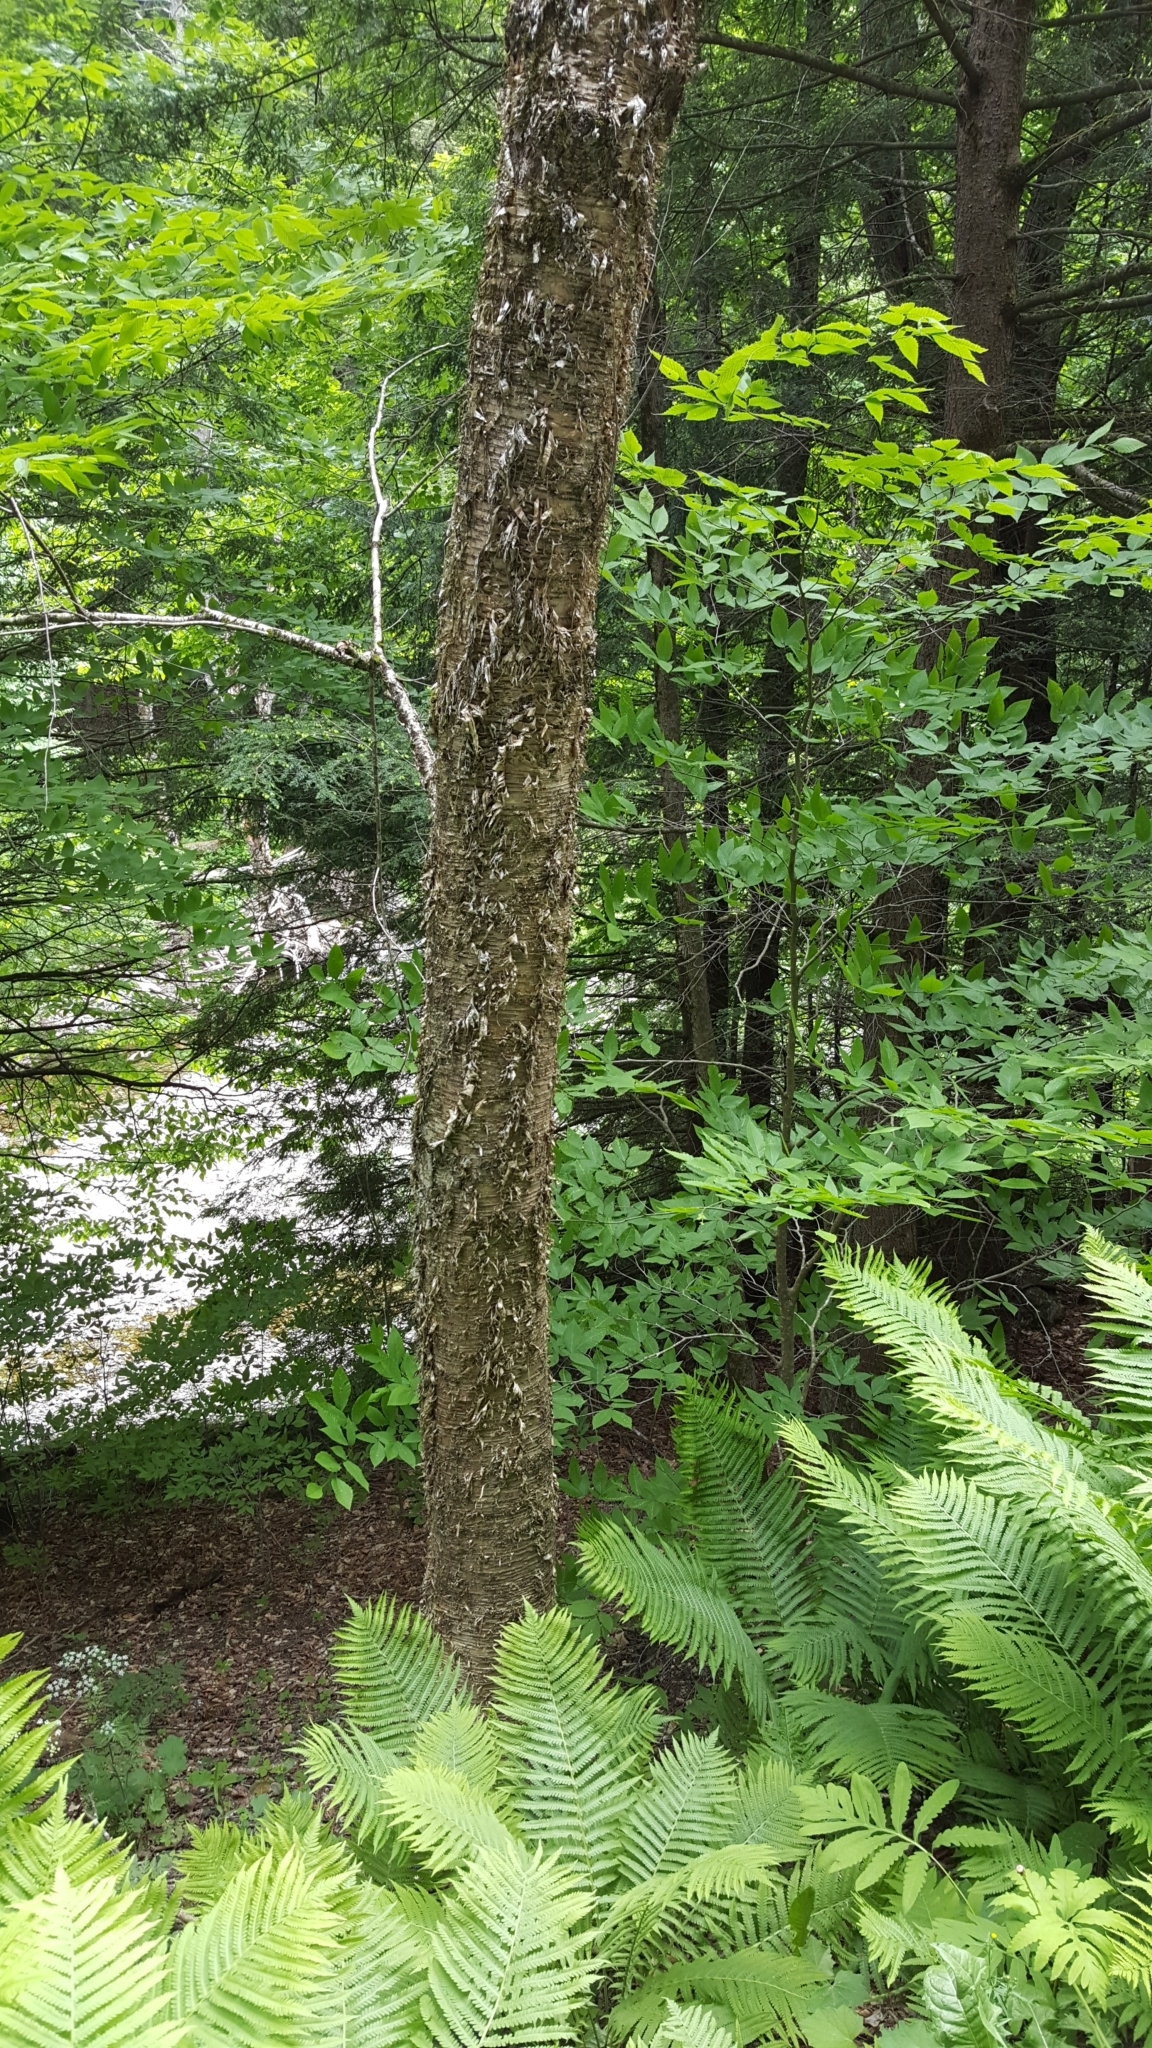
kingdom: Plantae
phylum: Tracheophyta
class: Magnoliopsida
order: Fagales
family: Betulaceae
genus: Betula
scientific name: Betula alleghaniensis
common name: Yellow birch
